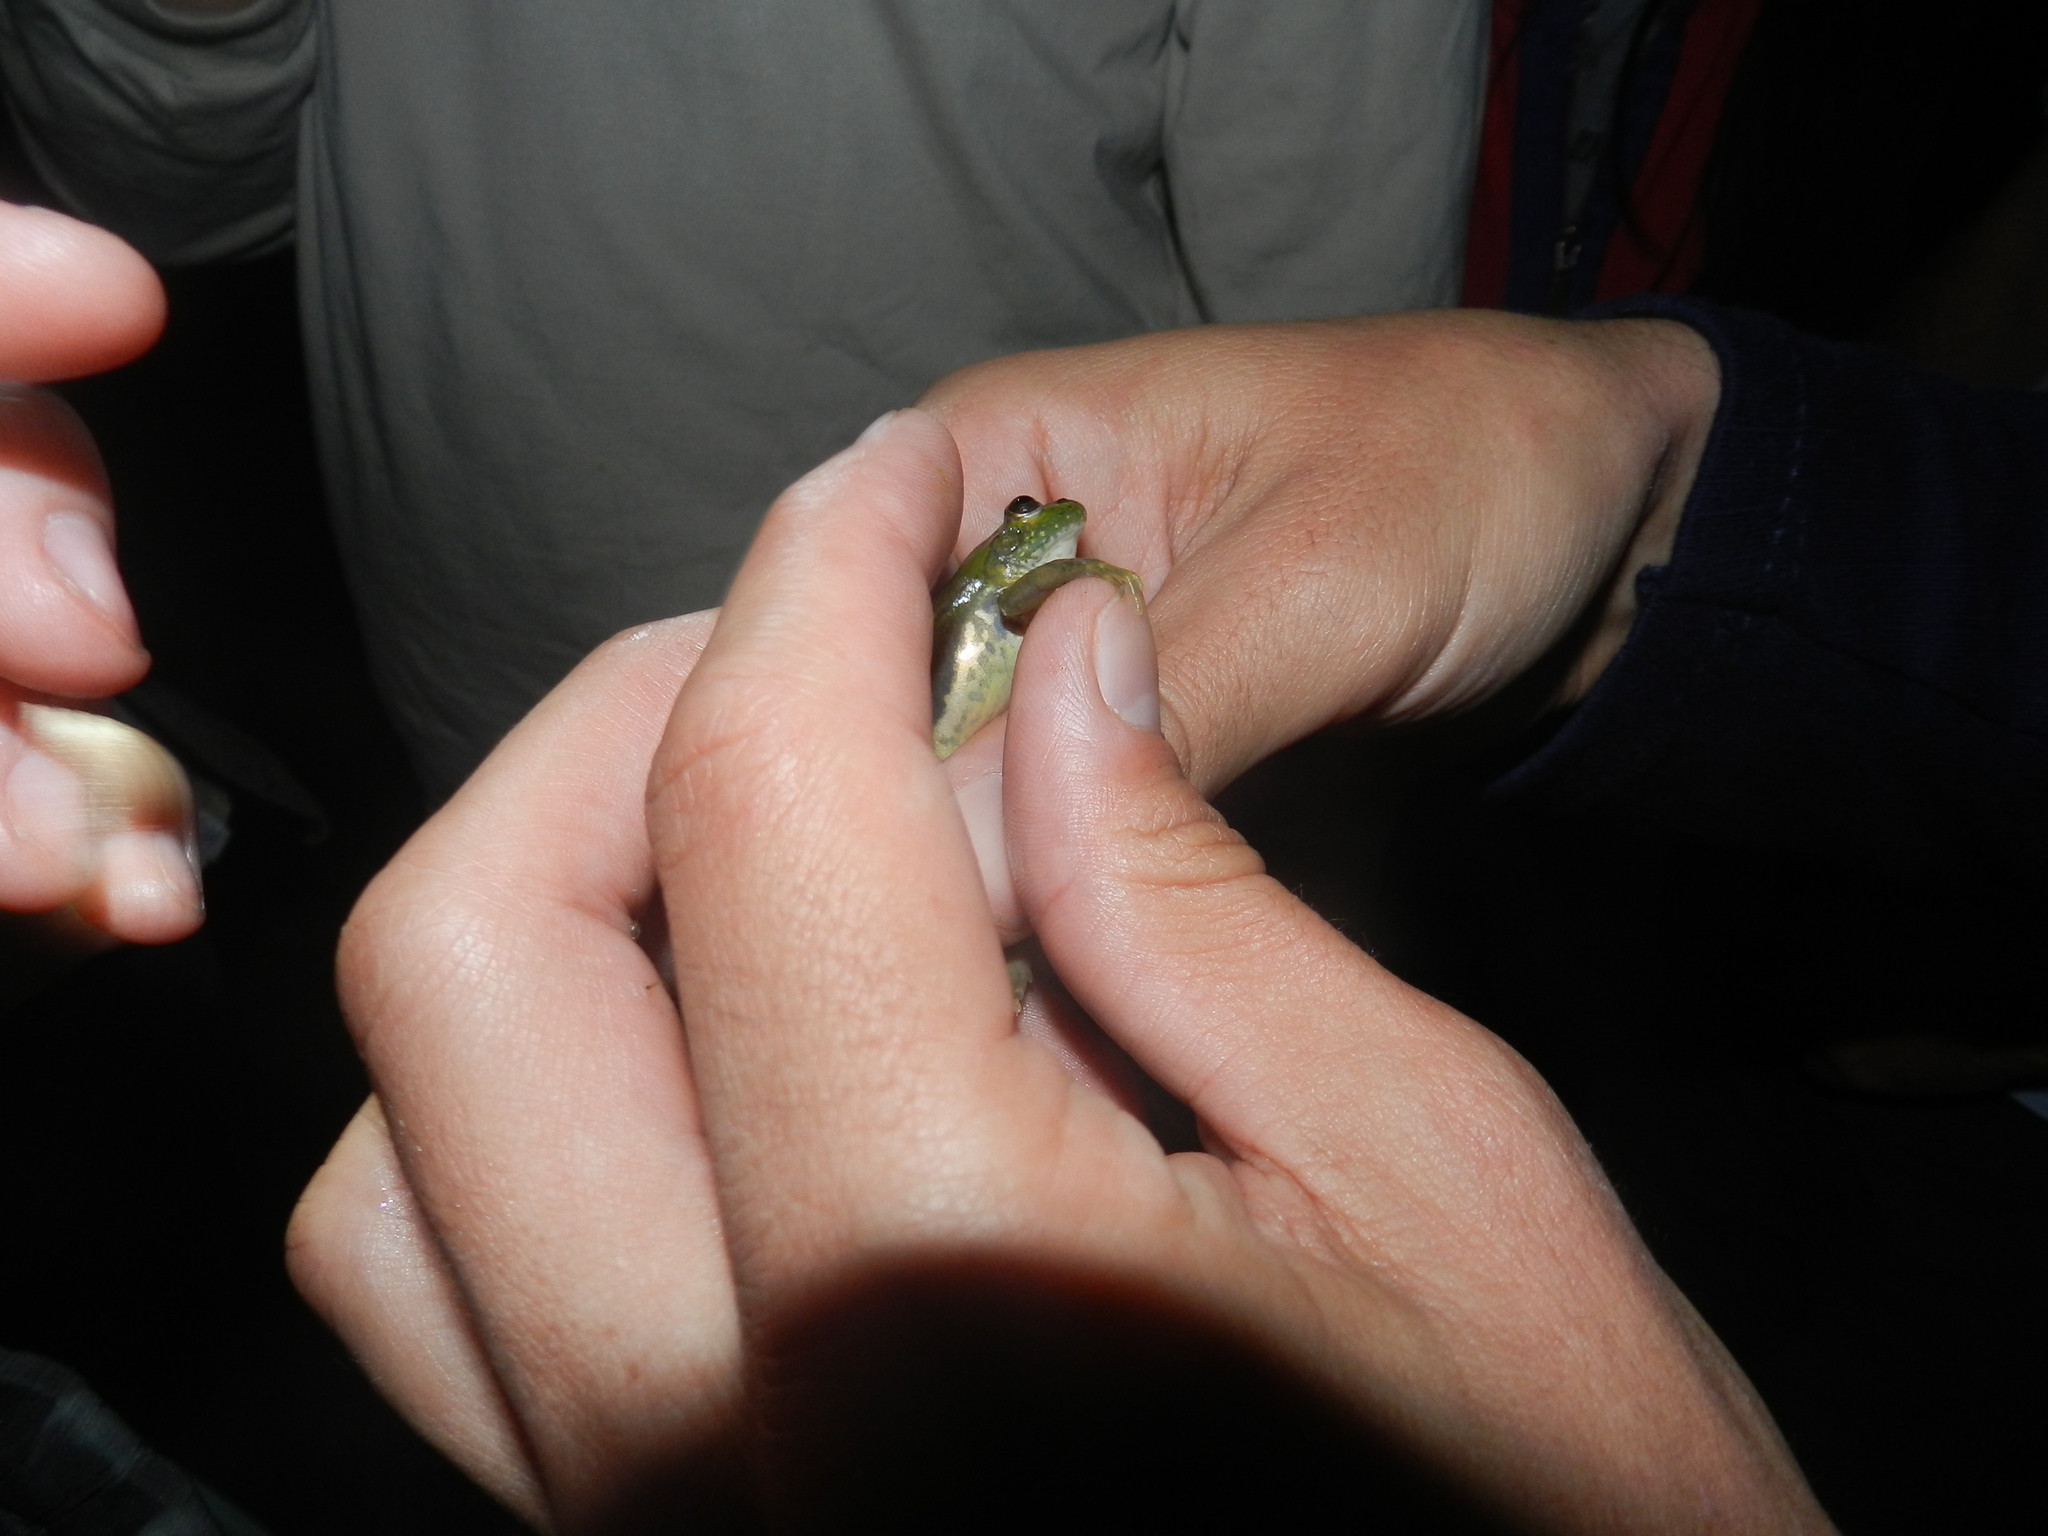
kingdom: Animalia
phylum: Chordata
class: Amphibia
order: Anura
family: Hylidae
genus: Pseudis
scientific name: Pseudis minuta
